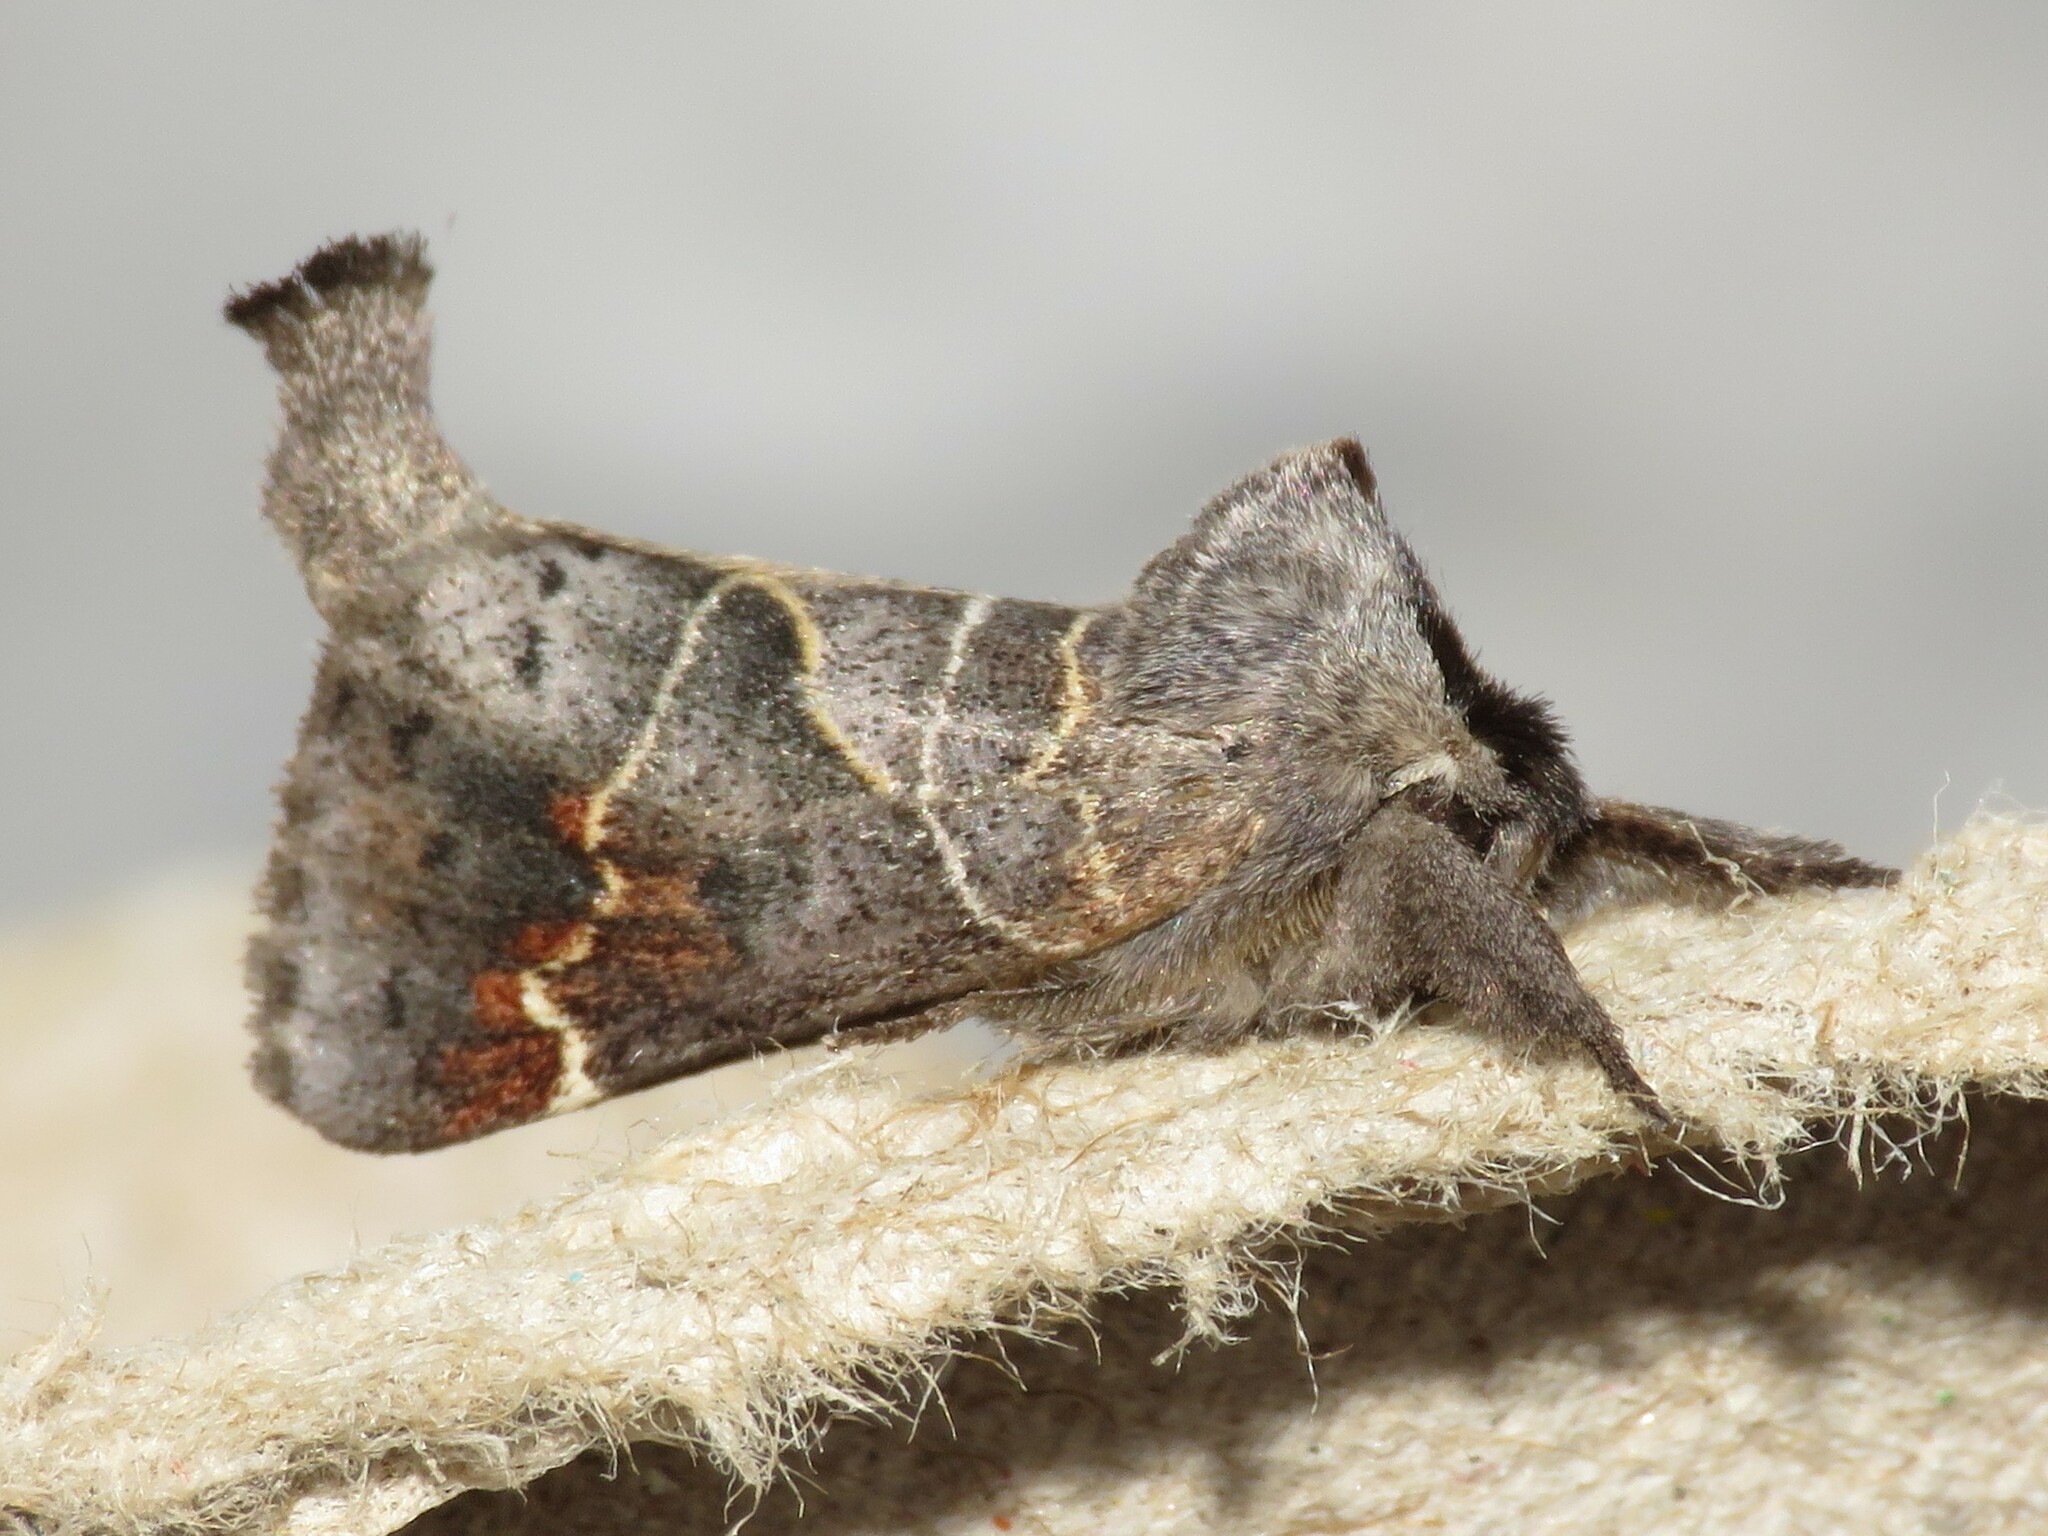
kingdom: Animalia
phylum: Arthropoda
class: Insecta
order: Lepidoptera
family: Notodontidae
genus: Clostera
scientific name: Clostera apicalis
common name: Apical prominent
